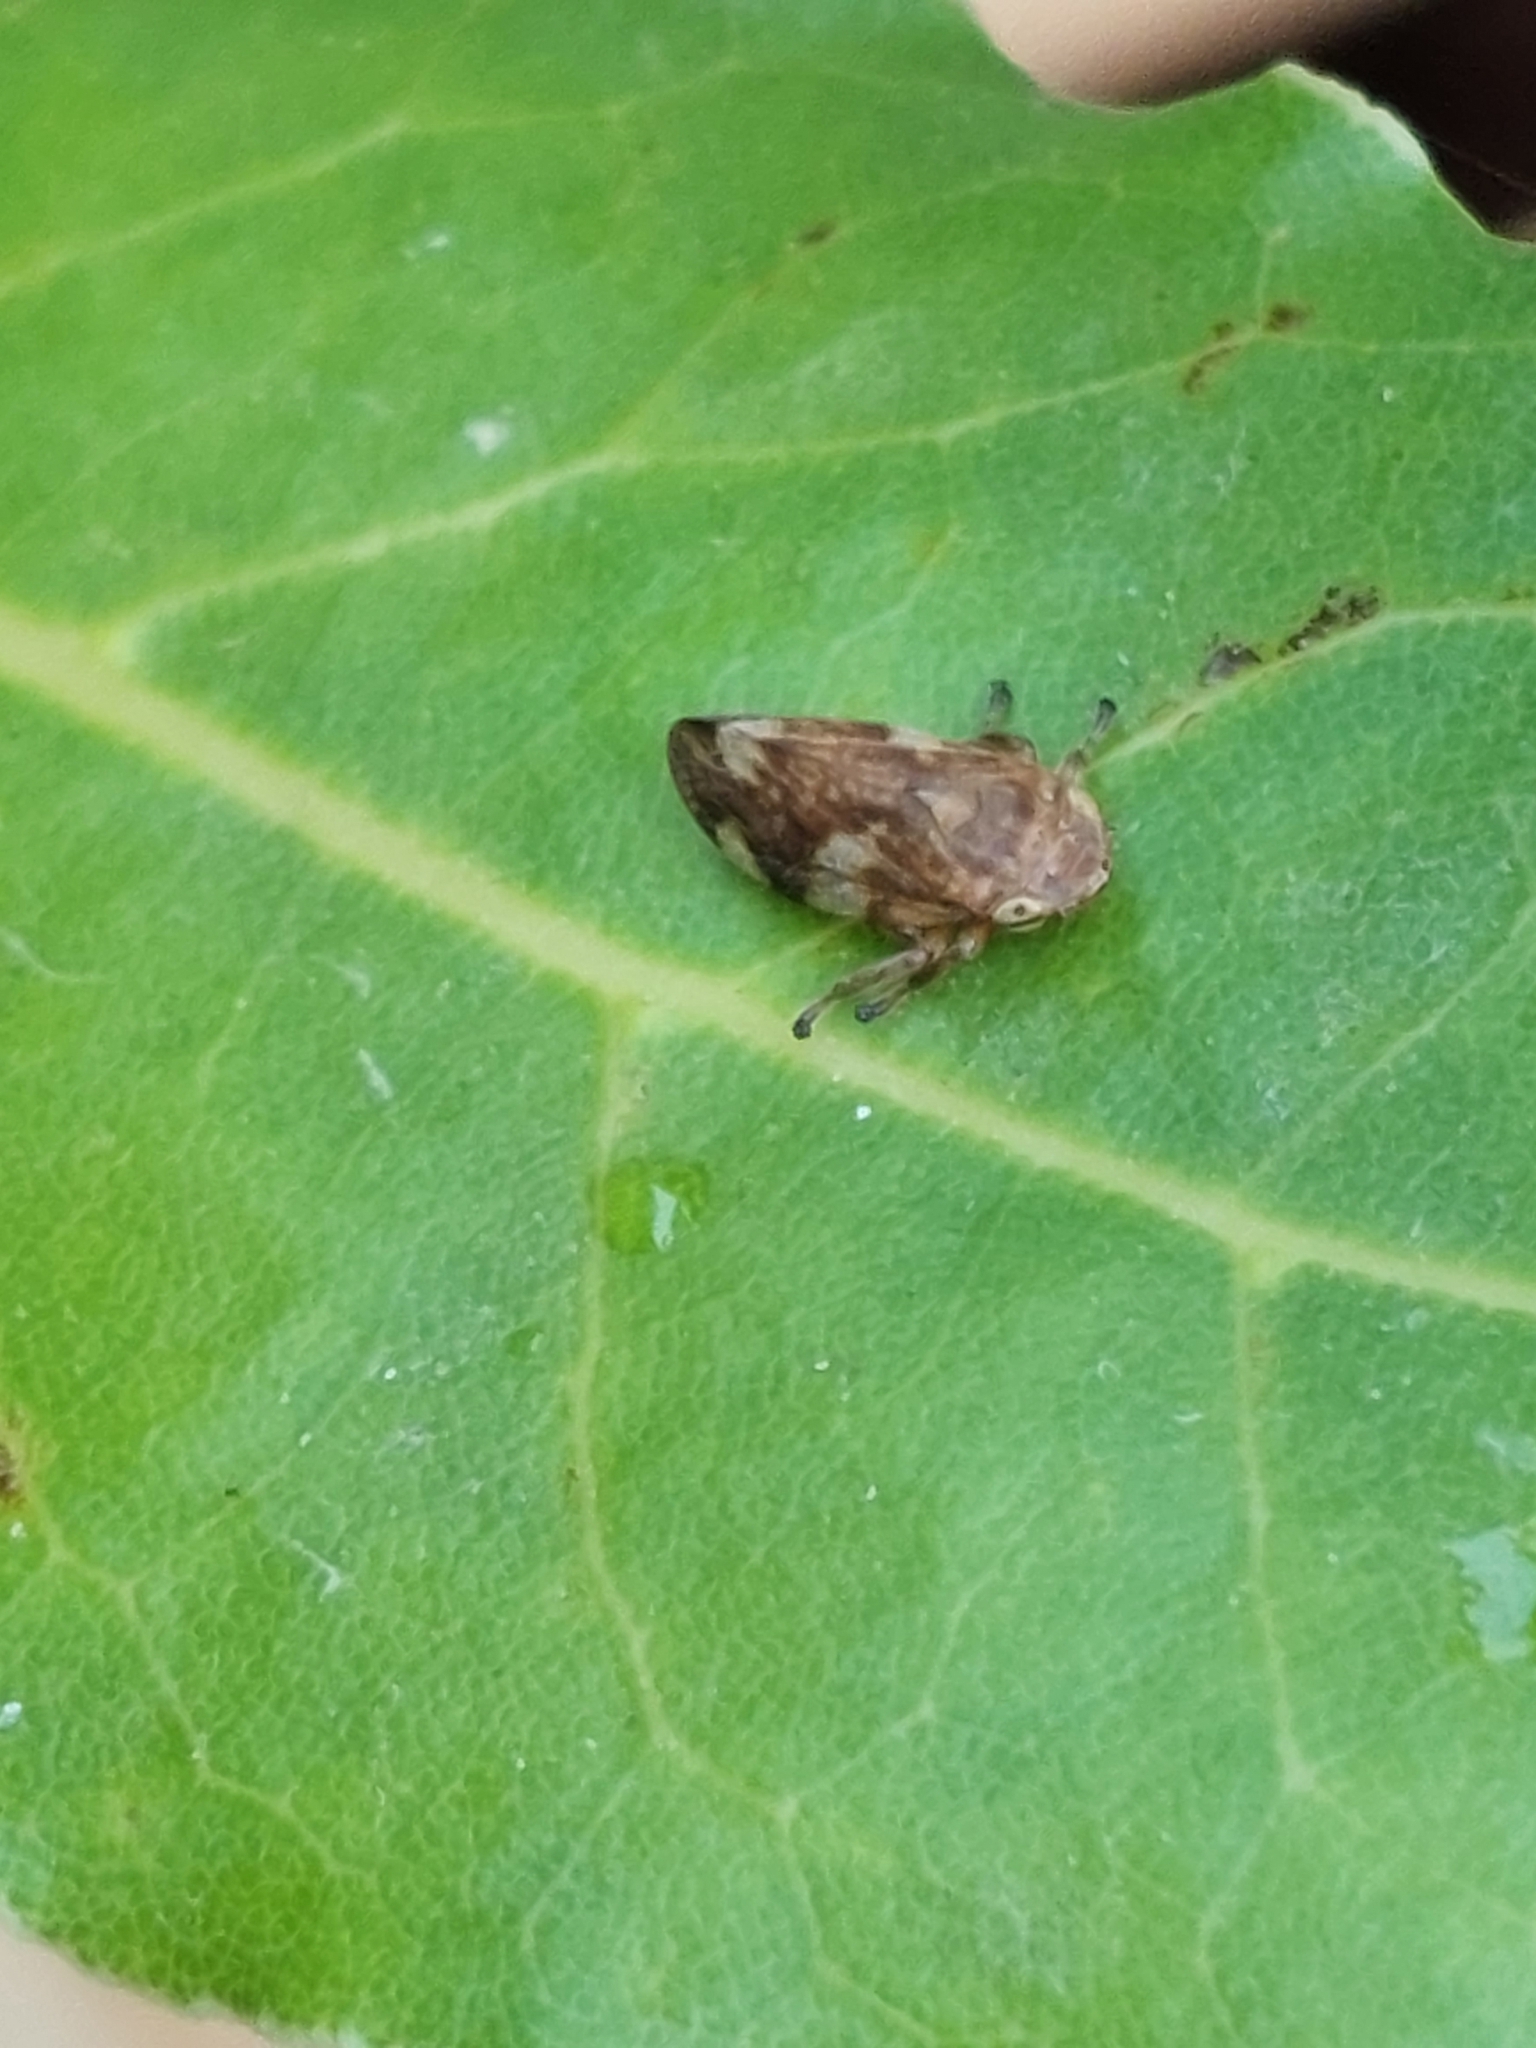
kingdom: Animalia
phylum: Arthropoda
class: Insecta
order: Hemiptera
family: Aphrophoridae
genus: Aphrophora
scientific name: Aphrophora alni
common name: European alder spittlebug
